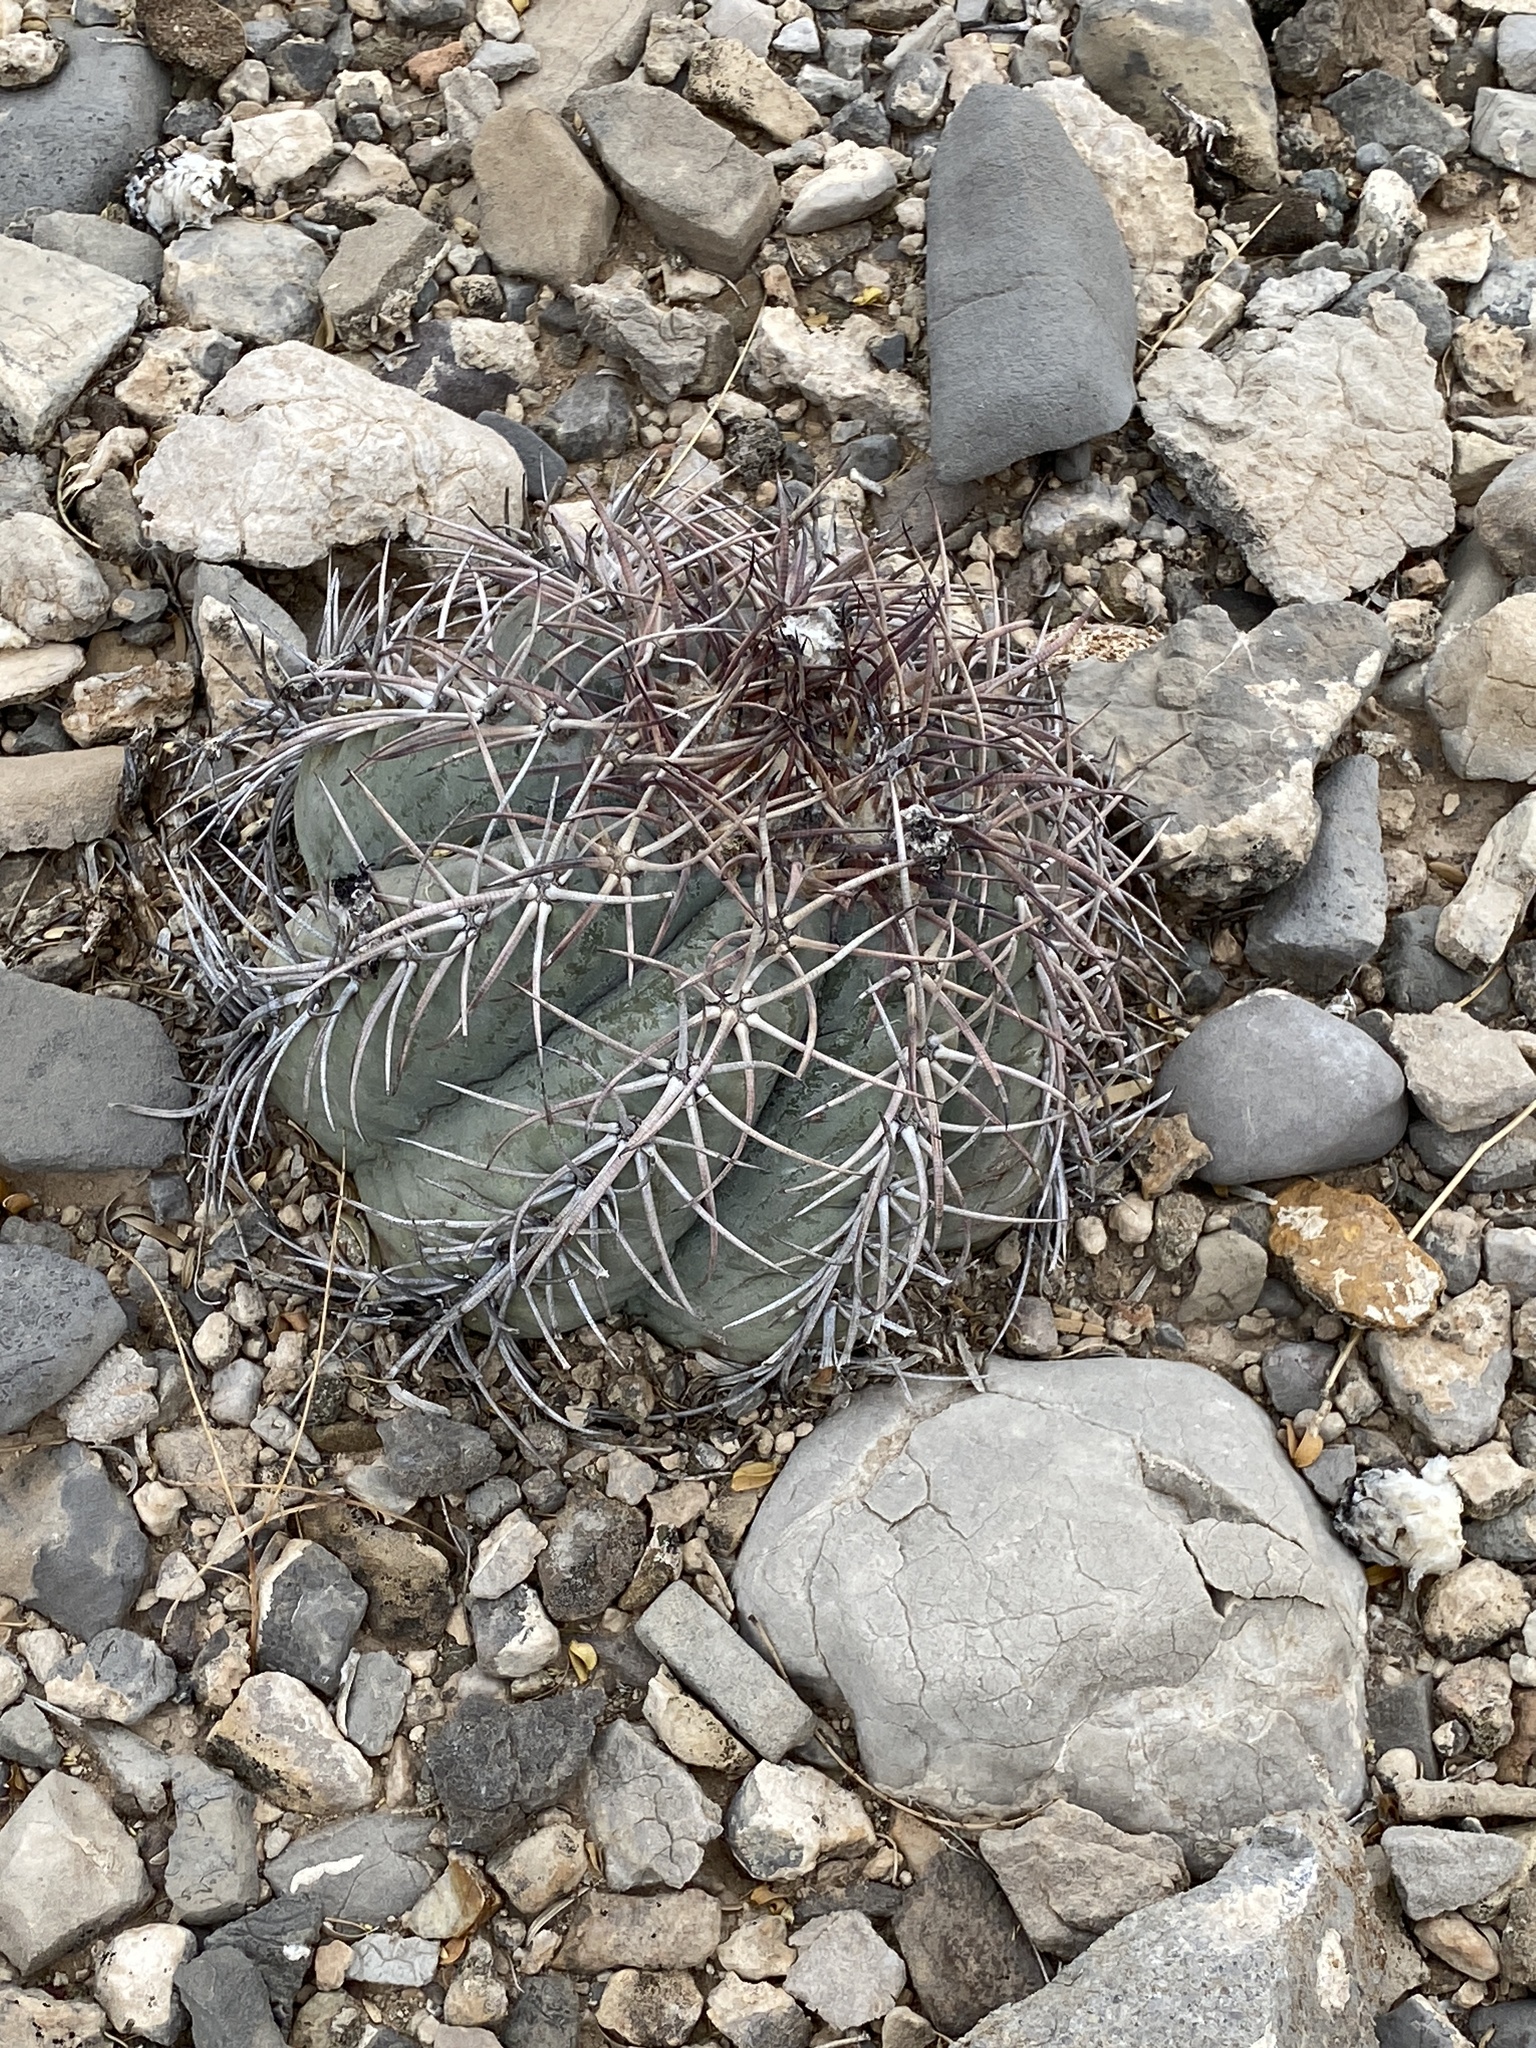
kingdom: Plantae
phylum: Tracheophyta
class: Magnoliopsida
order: Caryophyllales
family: Cactaceae
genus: Echinocactus
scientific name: Echinocactus horizonthalonius
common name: Devilshead
